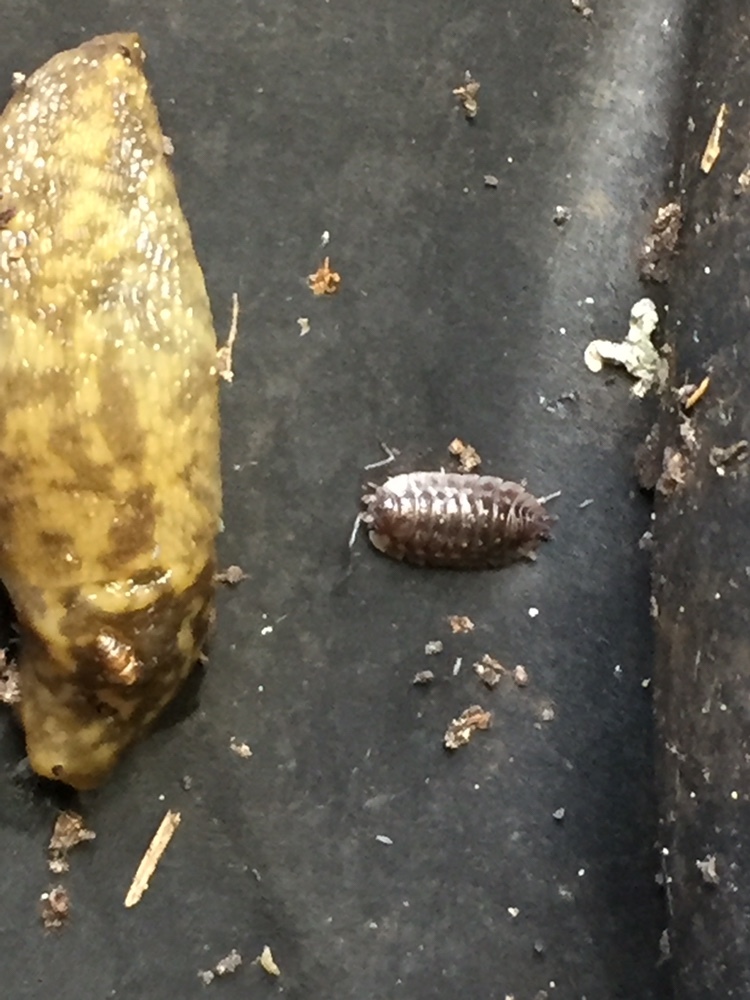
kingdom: Animalia
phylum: Arthropoda
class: Malacostraca
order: Isopoda
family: Oniscidae
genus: Oniscus
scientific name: Oniscus asellus
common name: Common shiny woodlouse
